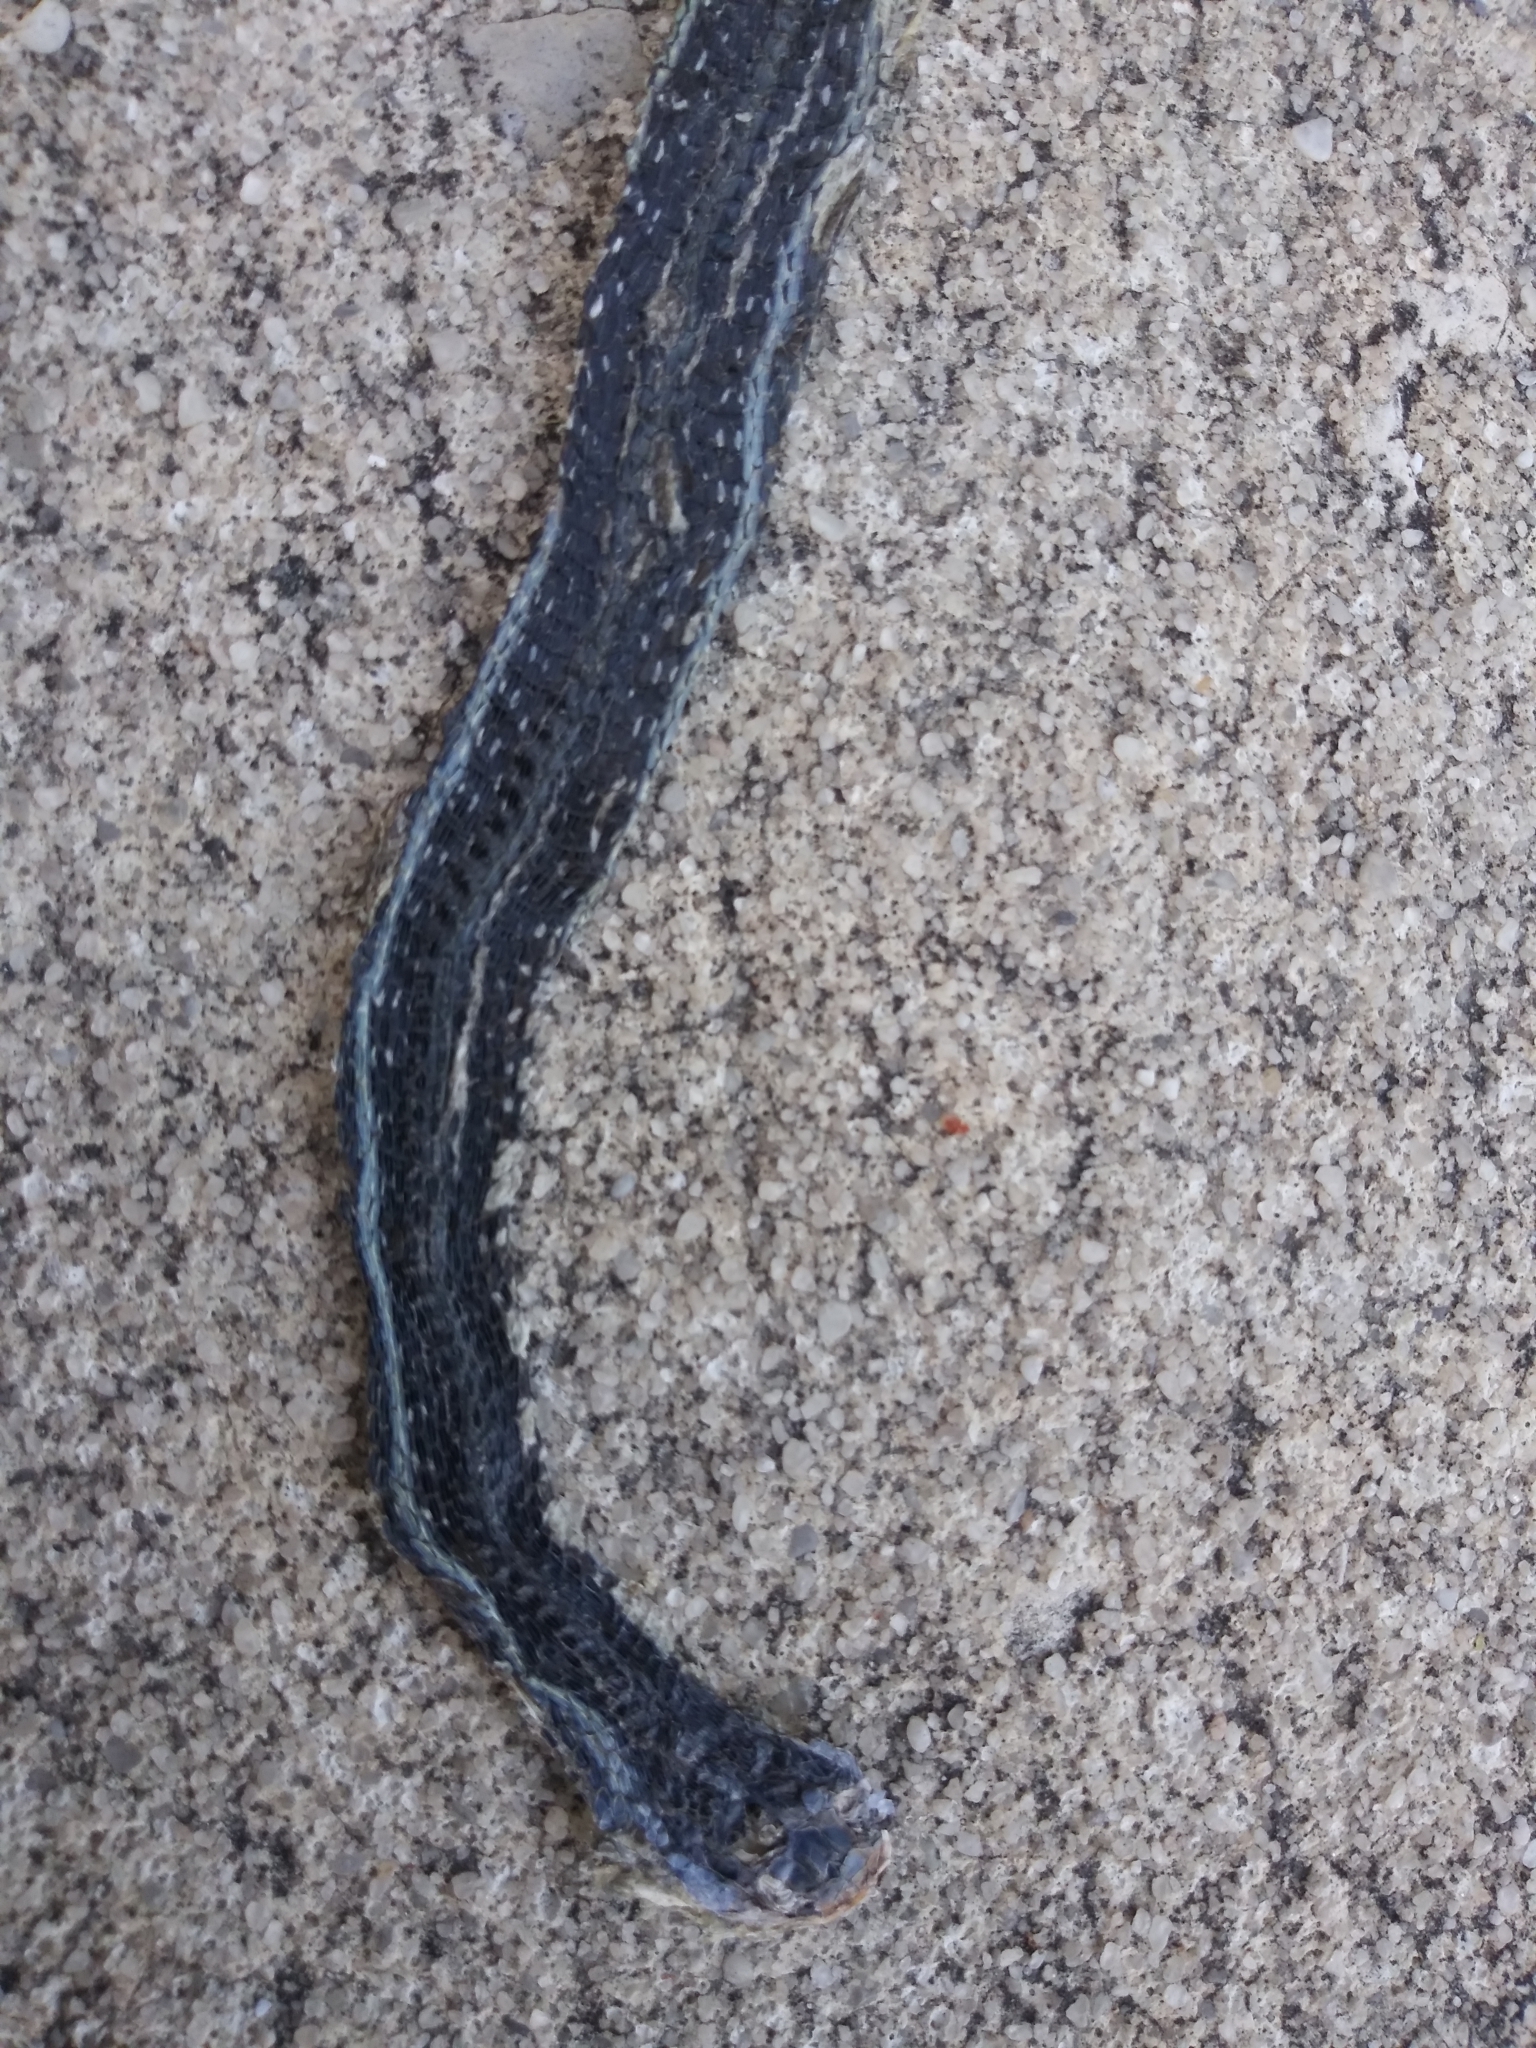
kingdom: Animalia
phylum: Chordata
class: Squamata
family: Colubridae
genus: Thamnophis
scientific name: Thamnophis saurita
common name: Eastern ribbonsnake
